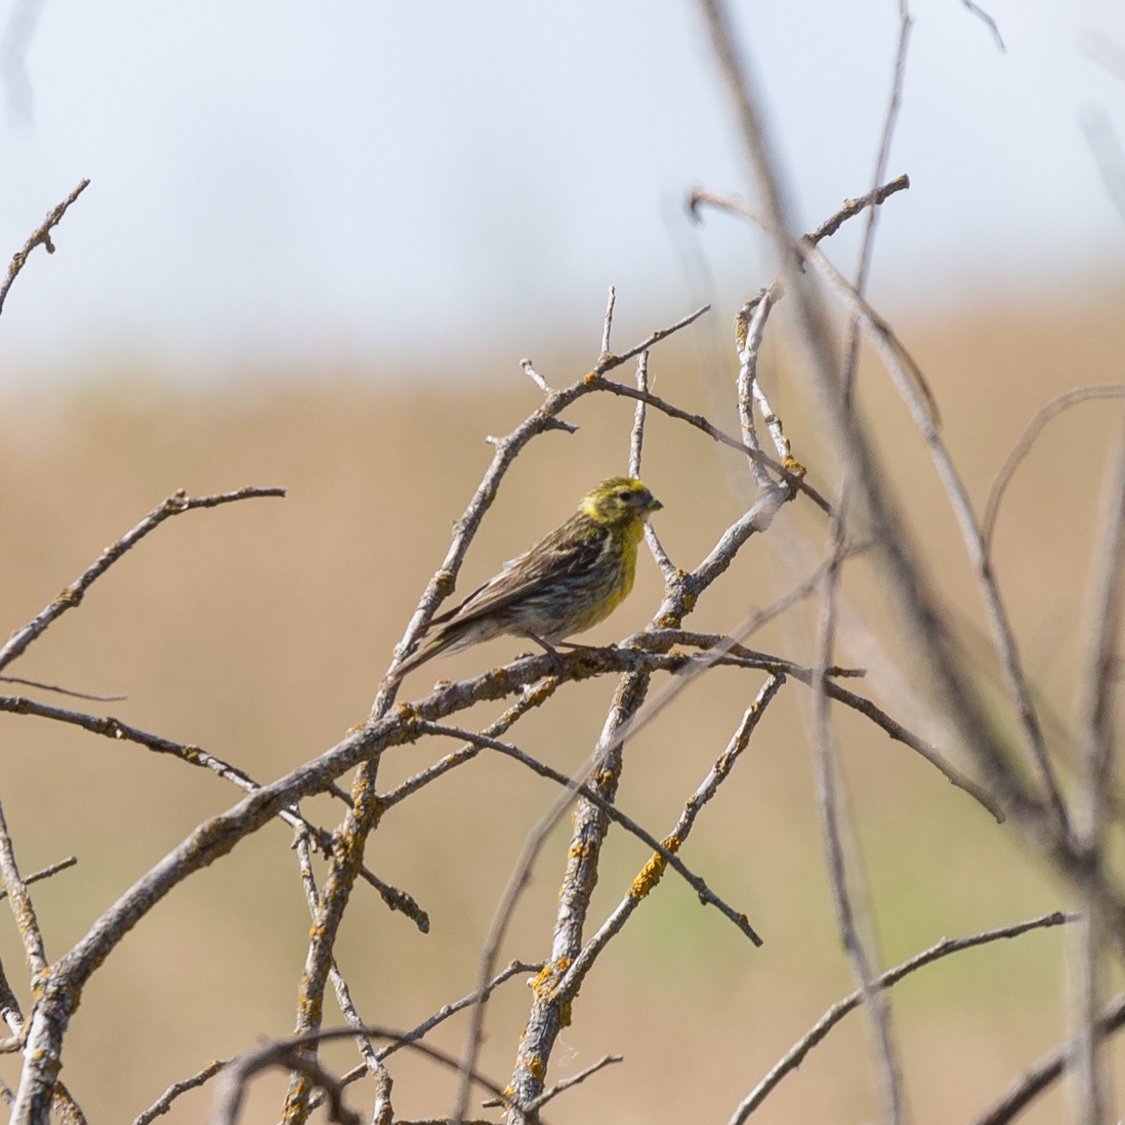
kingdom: Animalia
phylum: Chordata
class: Aves
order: Passeriformes
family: Fringillidae
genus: Serinus
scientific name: Serinus serinus
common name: European serin
